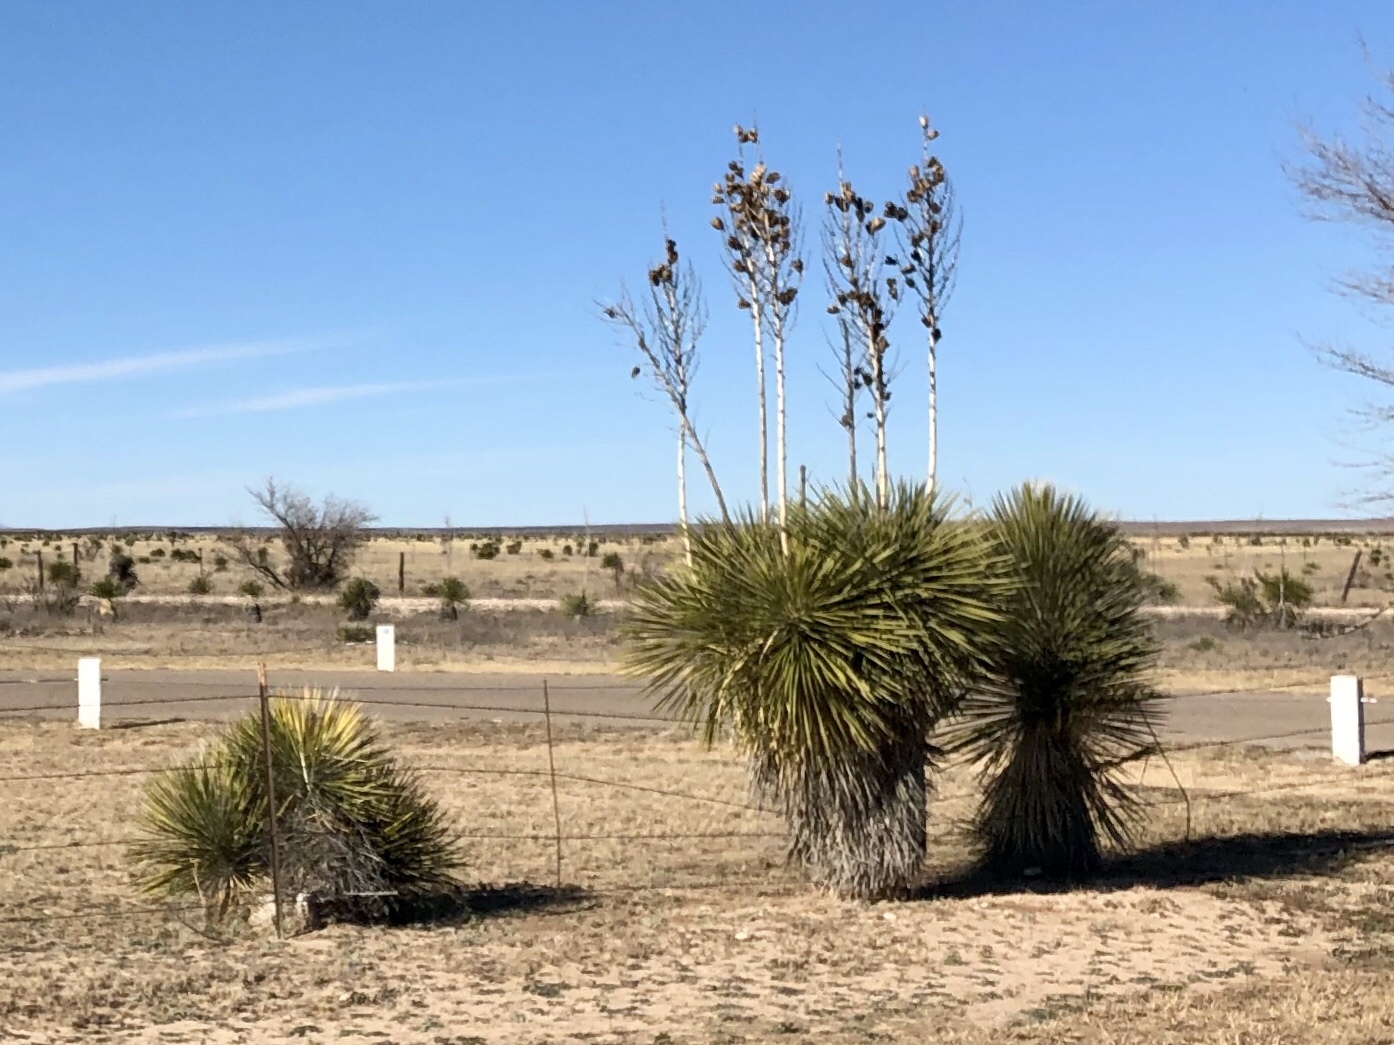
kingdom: Plantae
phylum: Tracheophyta
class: Liliopsida
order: Asparagales
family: Asparagaceae
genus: Yucca
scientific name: Yucca elata
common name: Palmella
